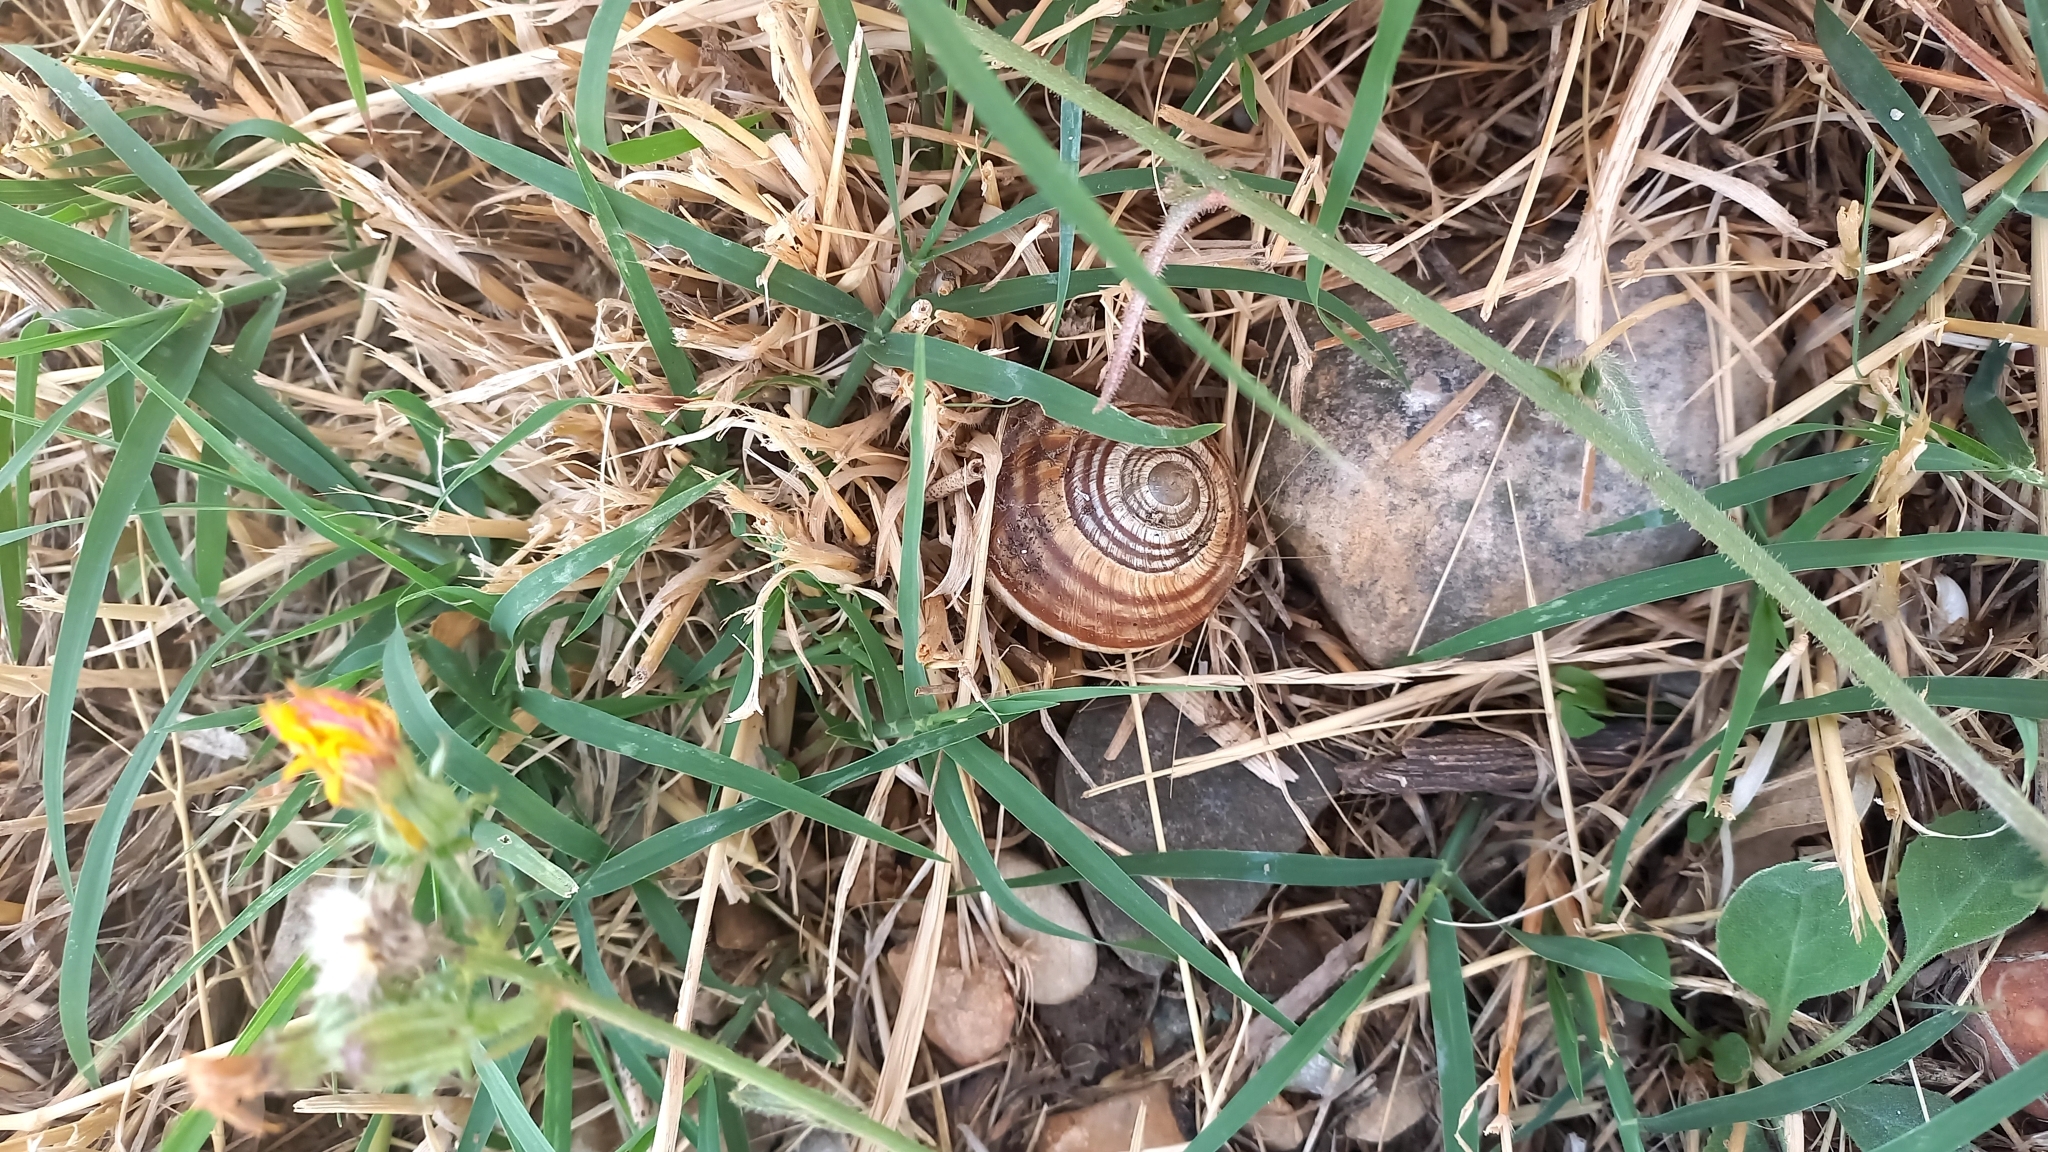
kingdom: Animalia
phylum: Mollusca
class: Gastropoda
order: Stylommatophora
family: Helicidae
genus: Helix
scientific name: Helix lucorum
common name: Turkish snail
